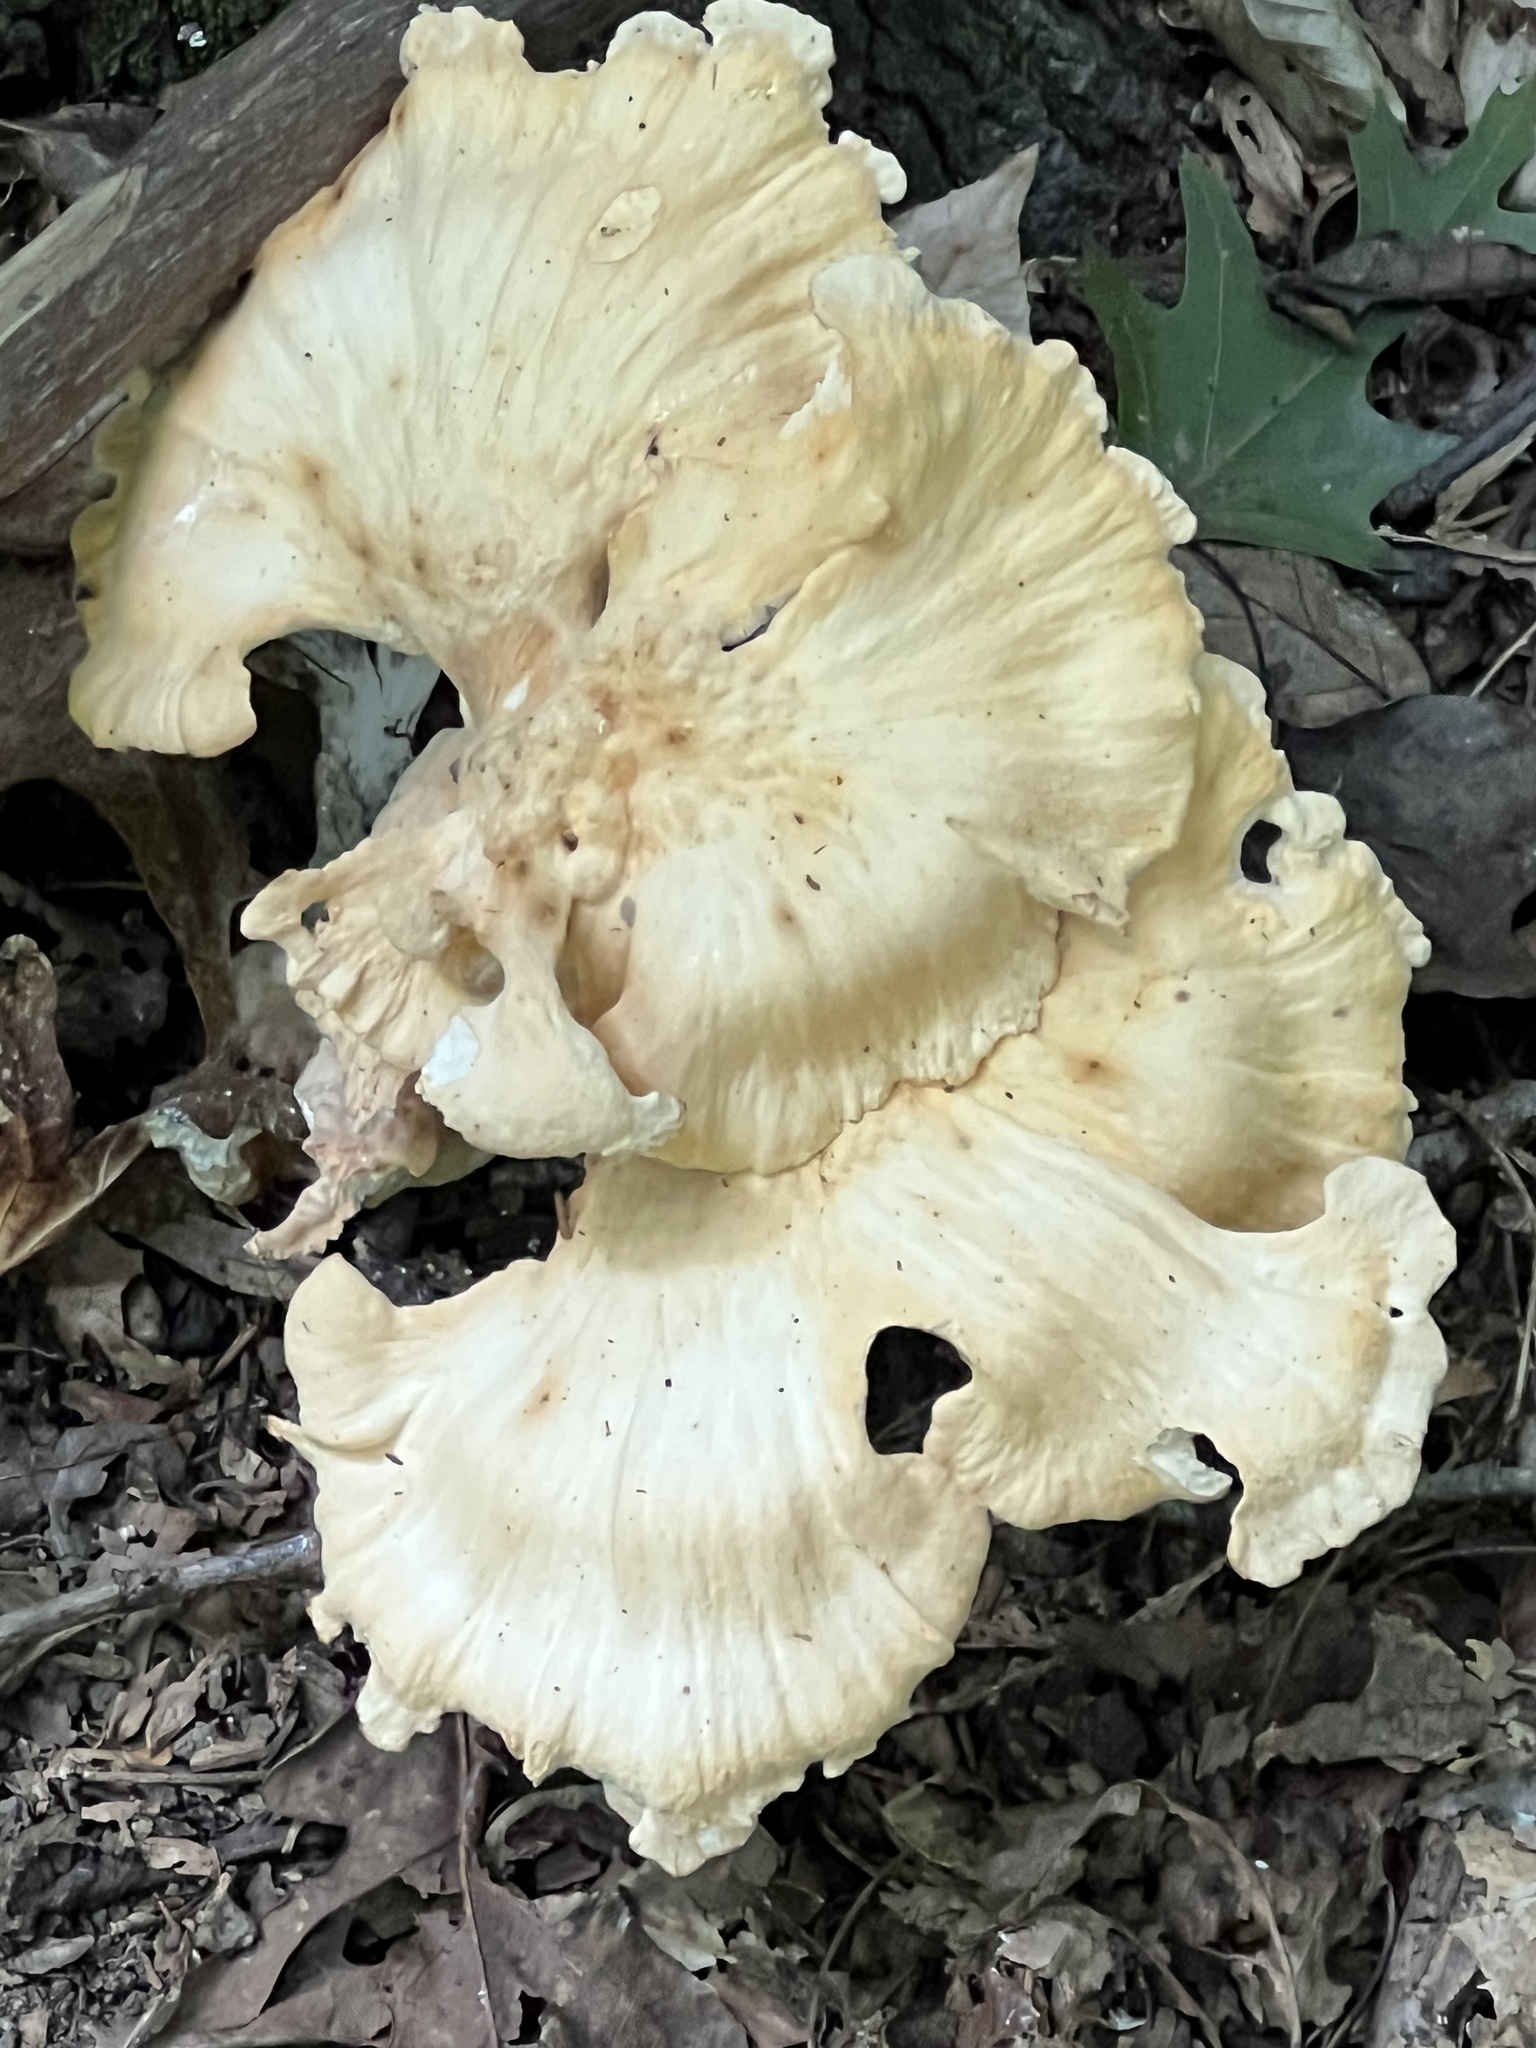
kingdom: Fungi
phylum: Basidiomycota
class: Agaricomycetes
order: Polyporales
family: Laetiporaceae
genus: Laetiporus
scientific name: Laetiporus sulphureus
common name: Chicken of the woods
